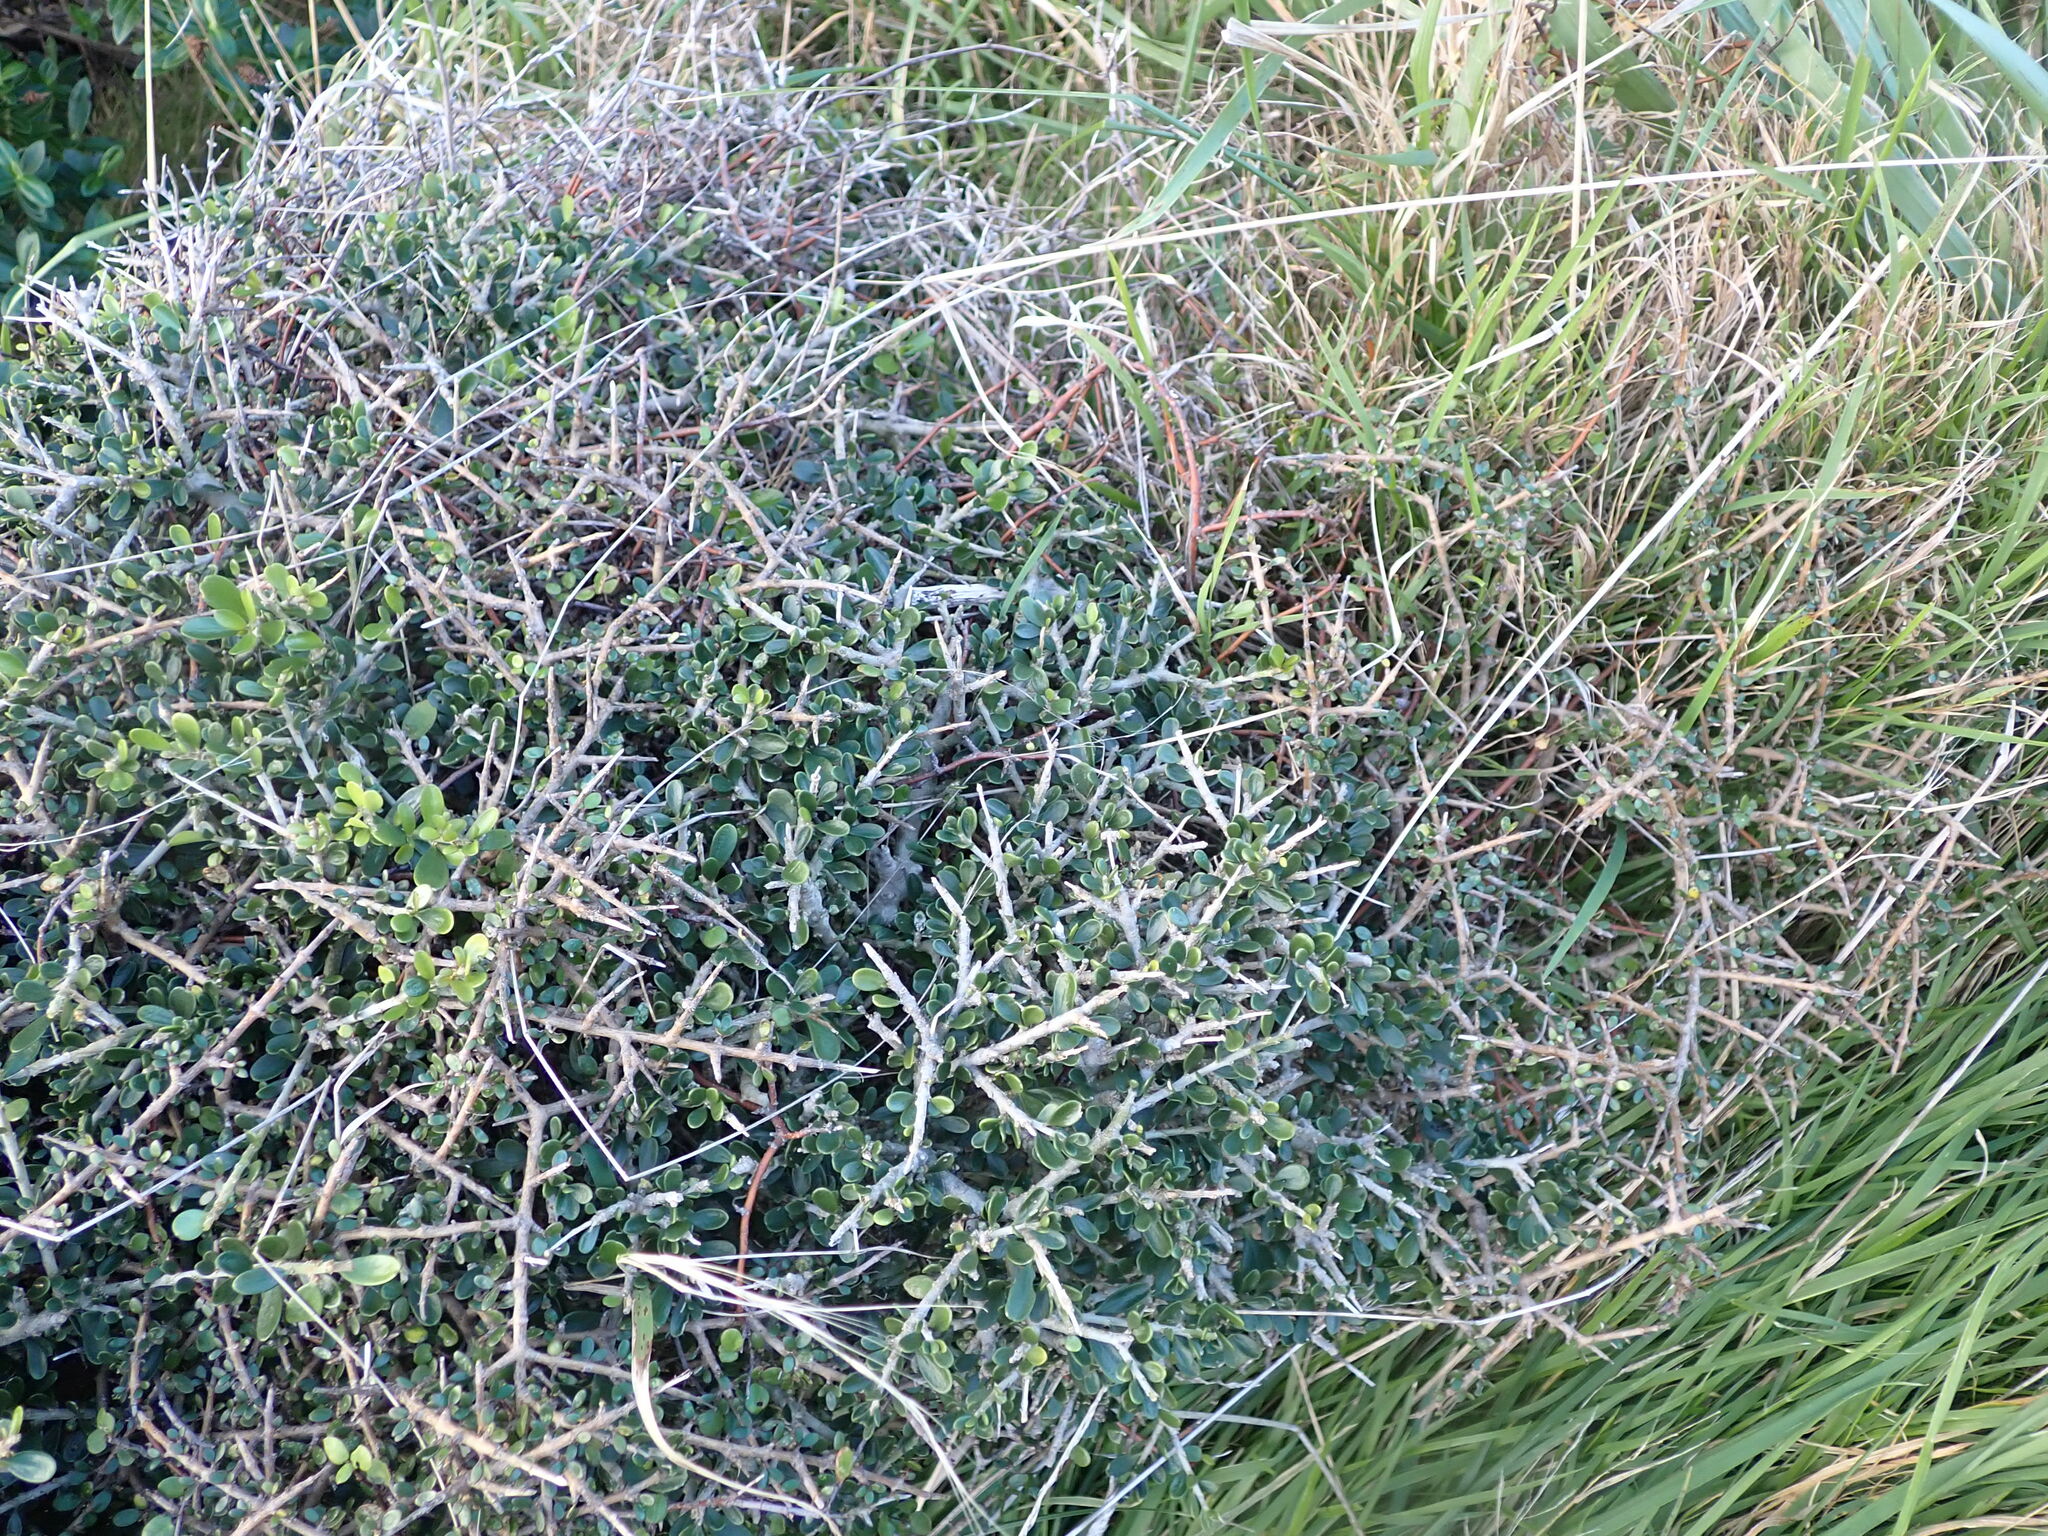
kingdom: Plantae
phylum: Tracheophyta
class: Magnoliopsida
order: Malpighiales
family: Violaceae
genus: Melicytus
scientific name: Melicytus crassifolius
